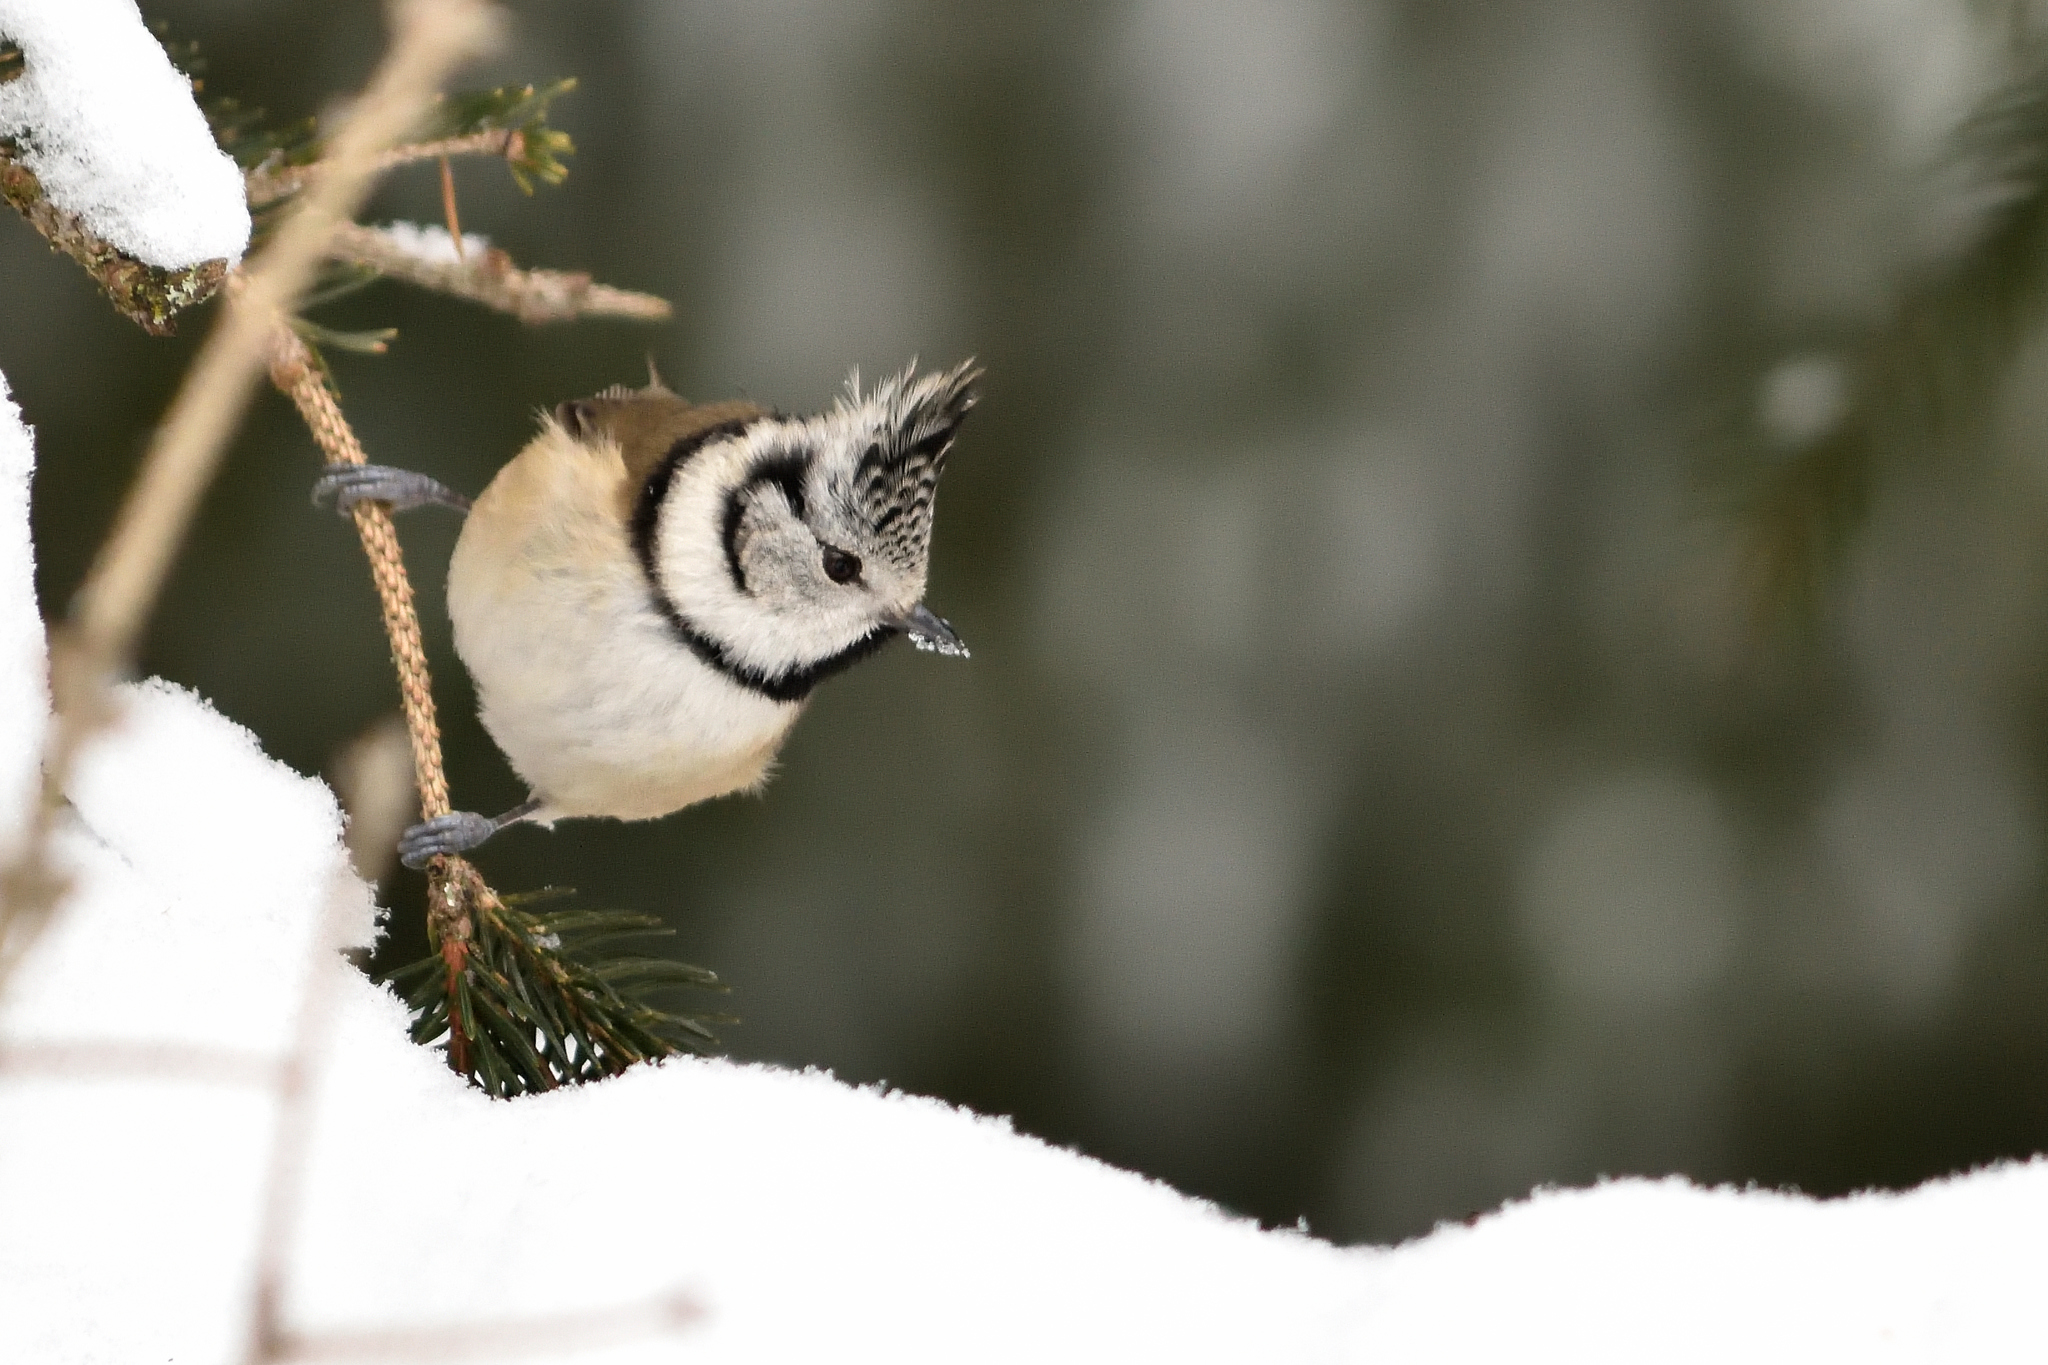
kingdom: Animalia
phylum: Chordata
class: Aves
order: Passeriformes
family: Paridae
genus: Lophophanes
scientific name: Lophophanes cristatus
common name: European crested tit
